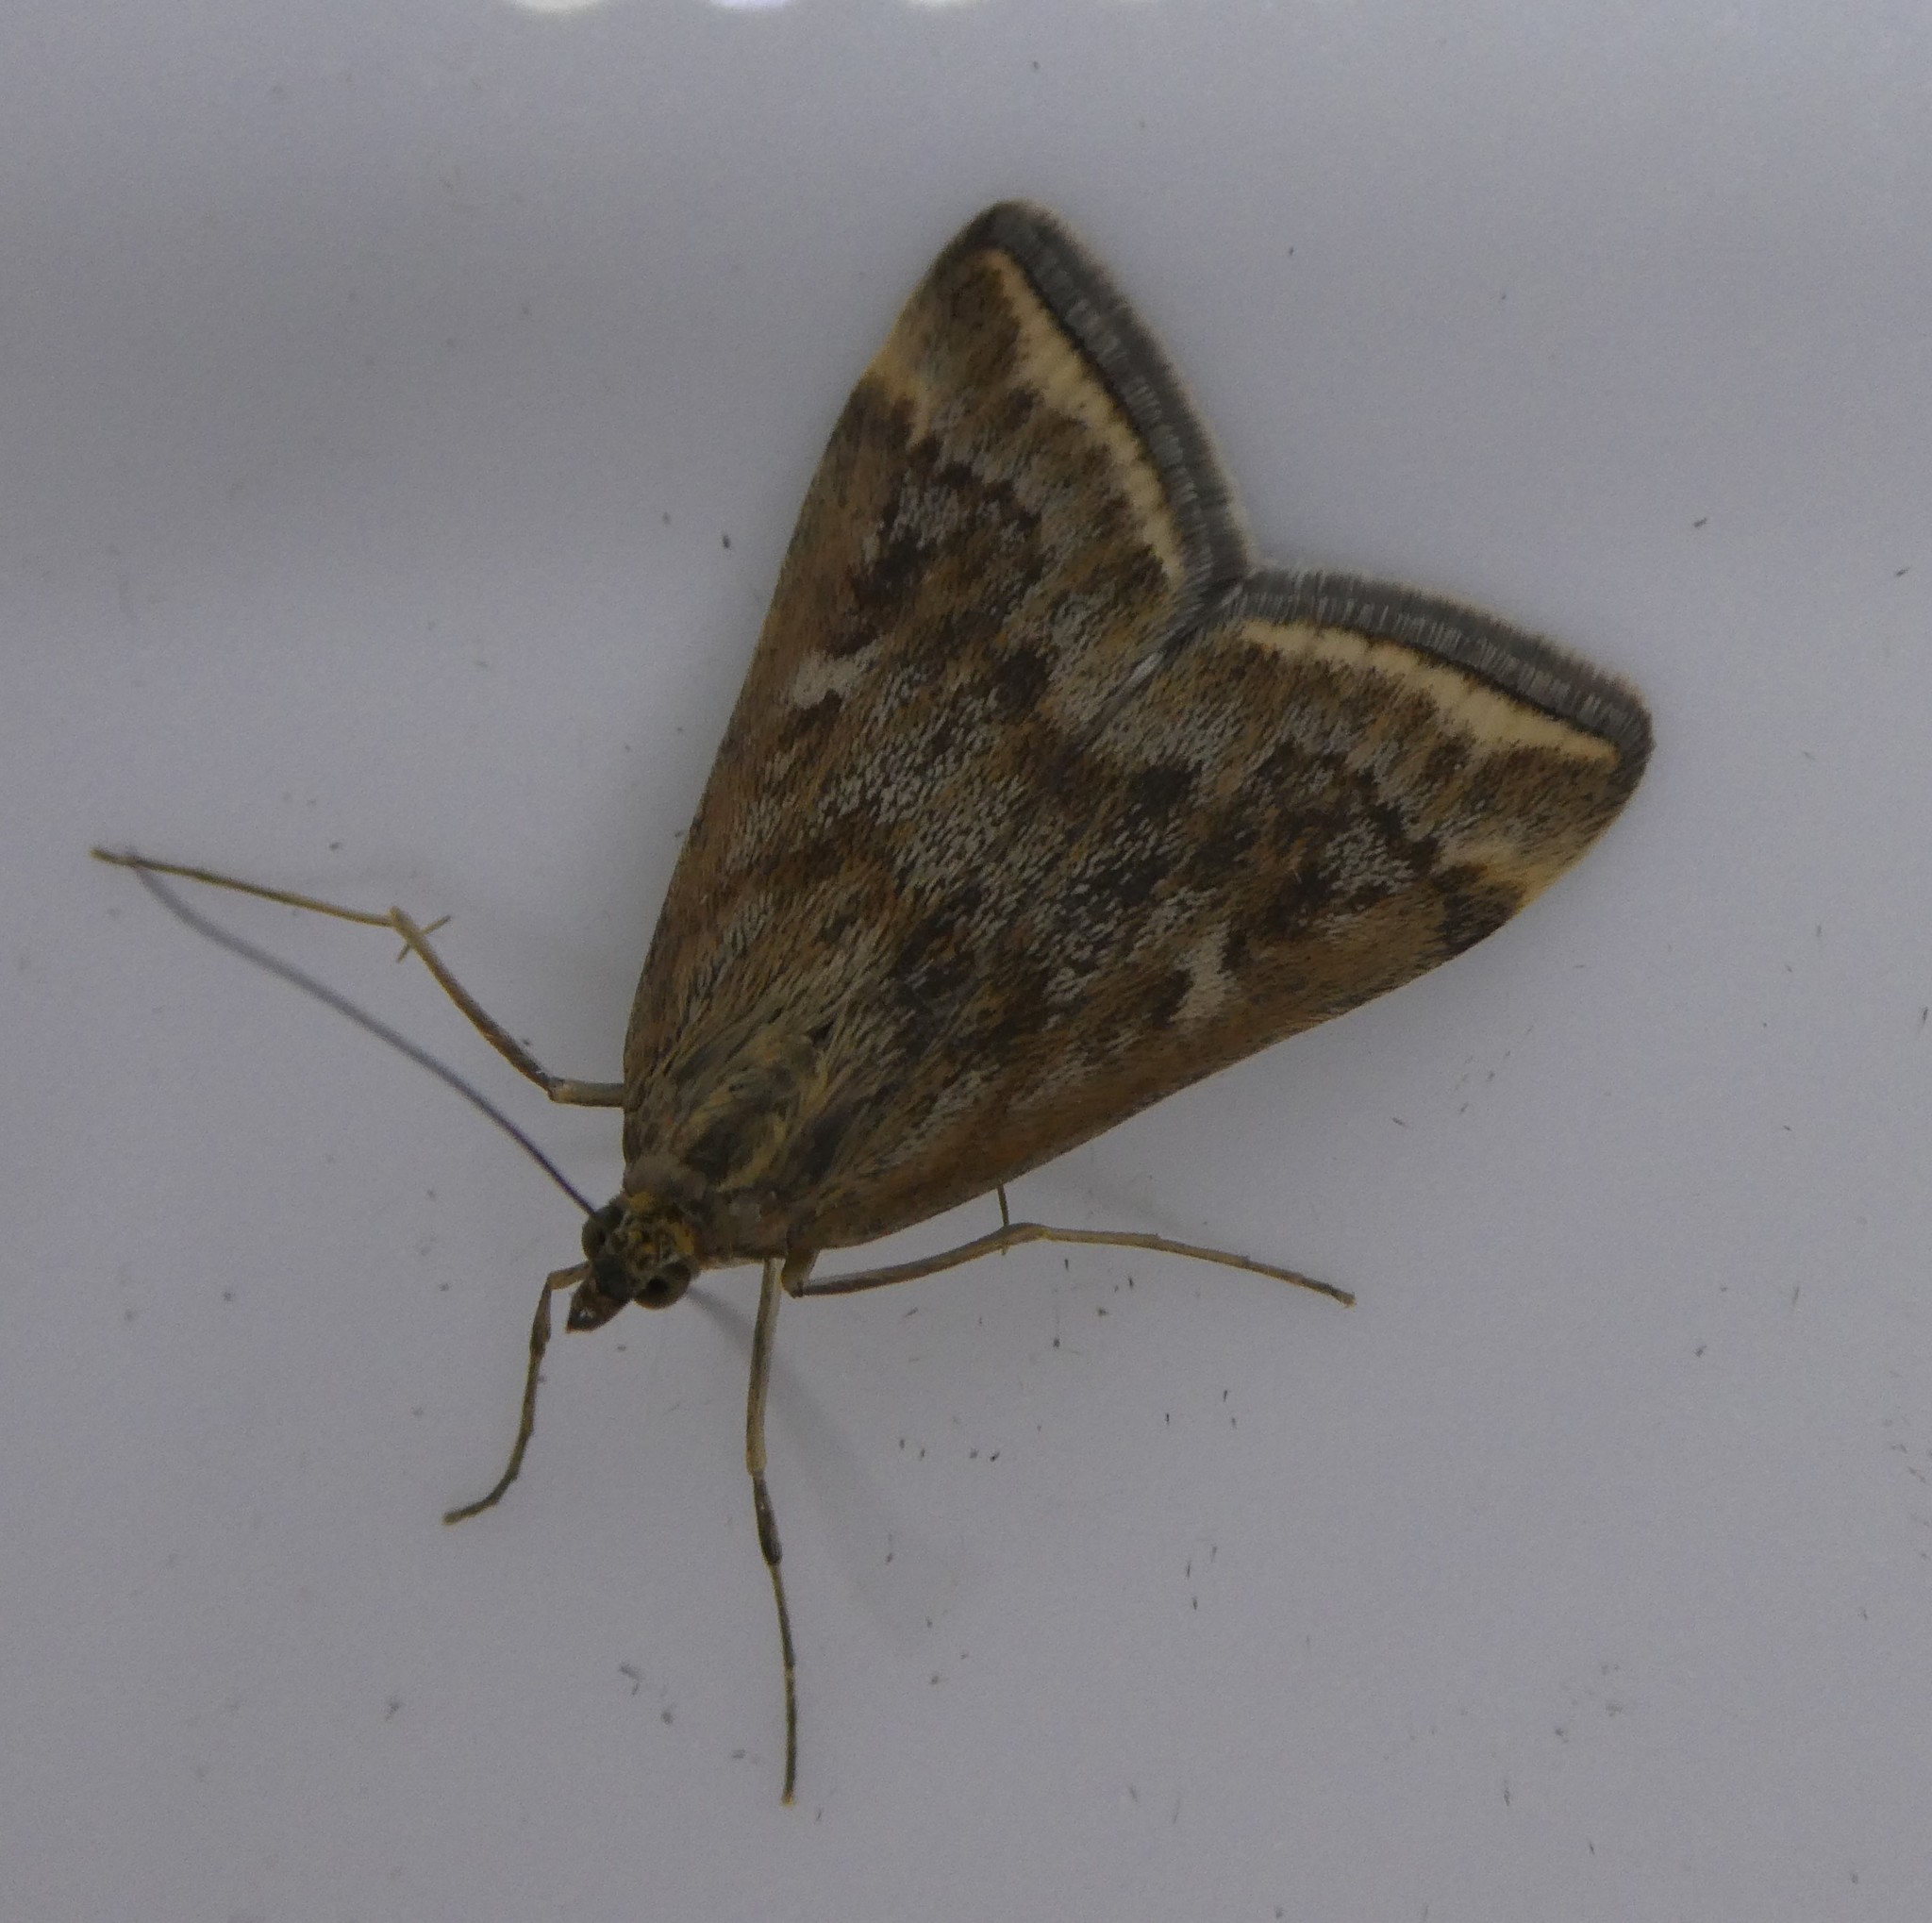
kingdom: Animalia
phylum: Arthropoda
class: Insecta
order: Lepidoptera
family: Crambidae
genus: Loxostege
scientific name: Loxostege
